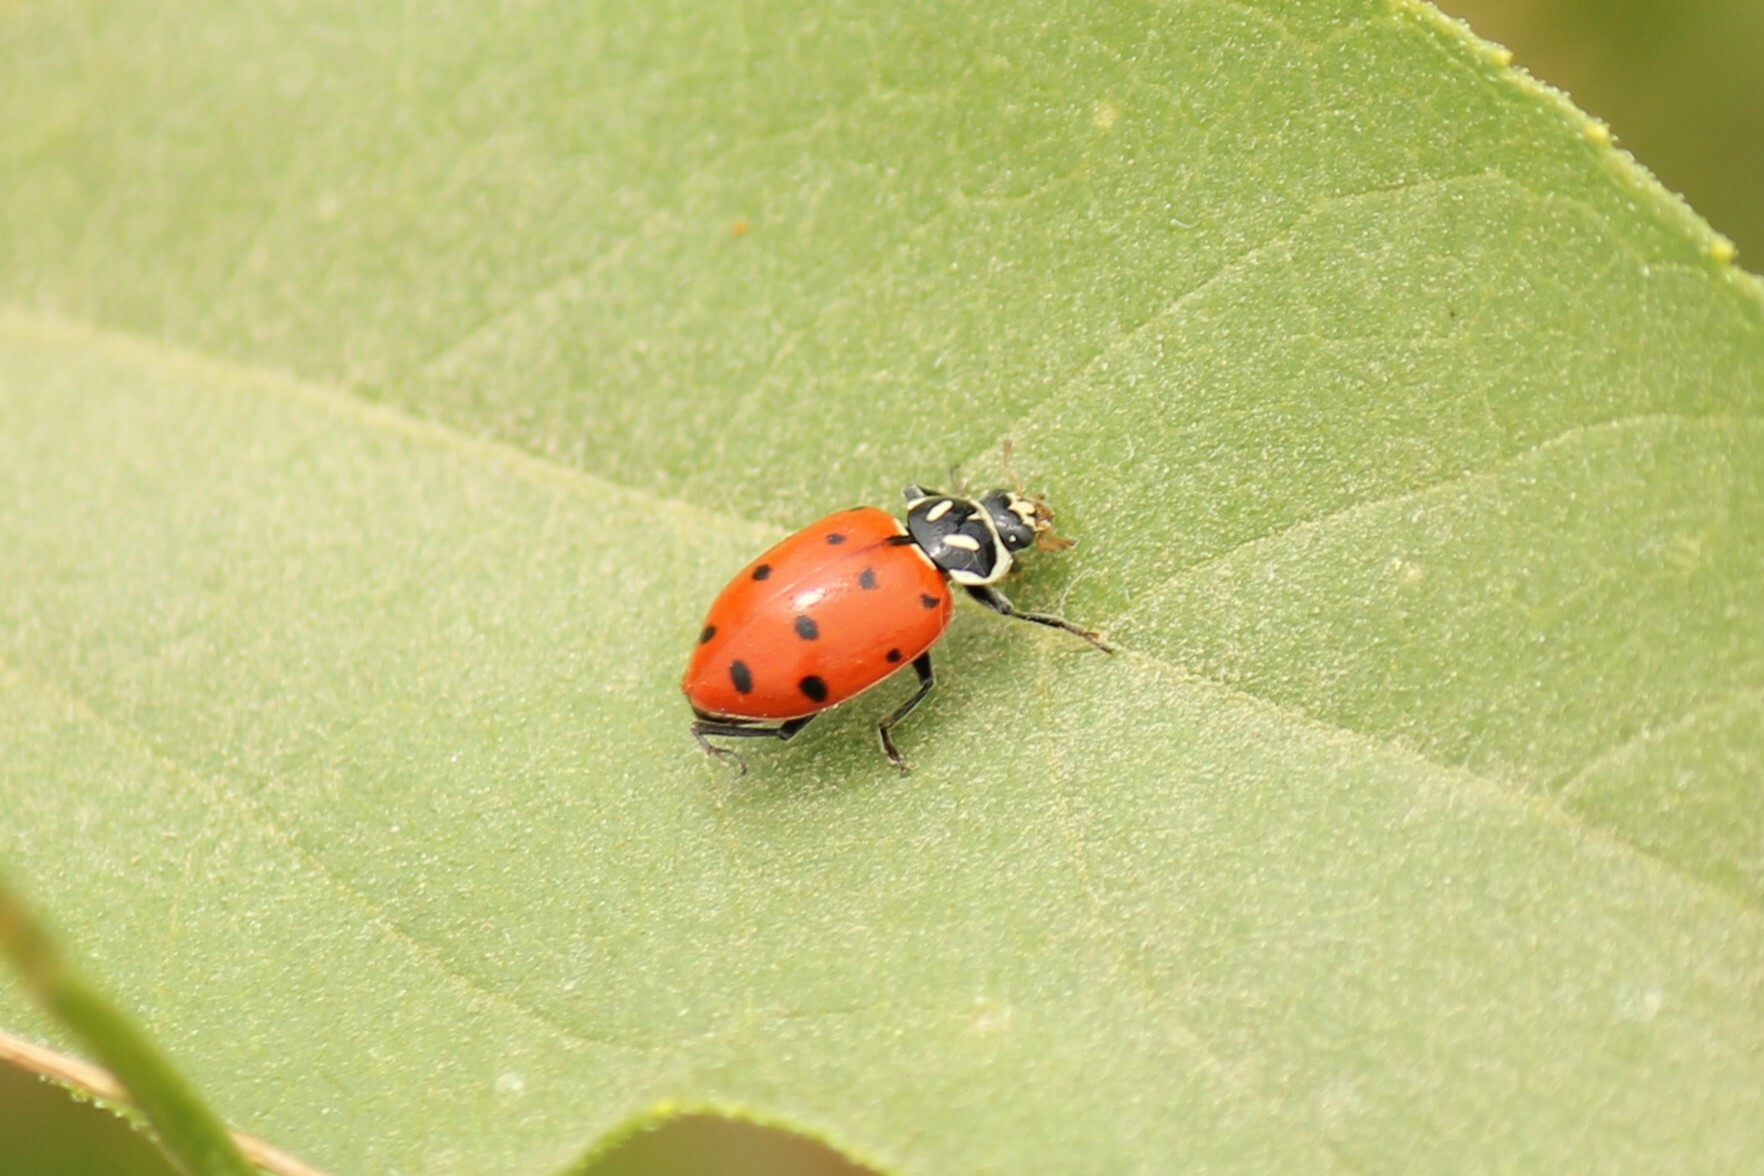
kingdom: Animalia
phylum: Arthropoda
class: Insecta
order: Coleoptera
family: Coccinellidae
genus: Hippodamia
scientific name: Hippodamia convergens
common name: Convergent lady beetle
